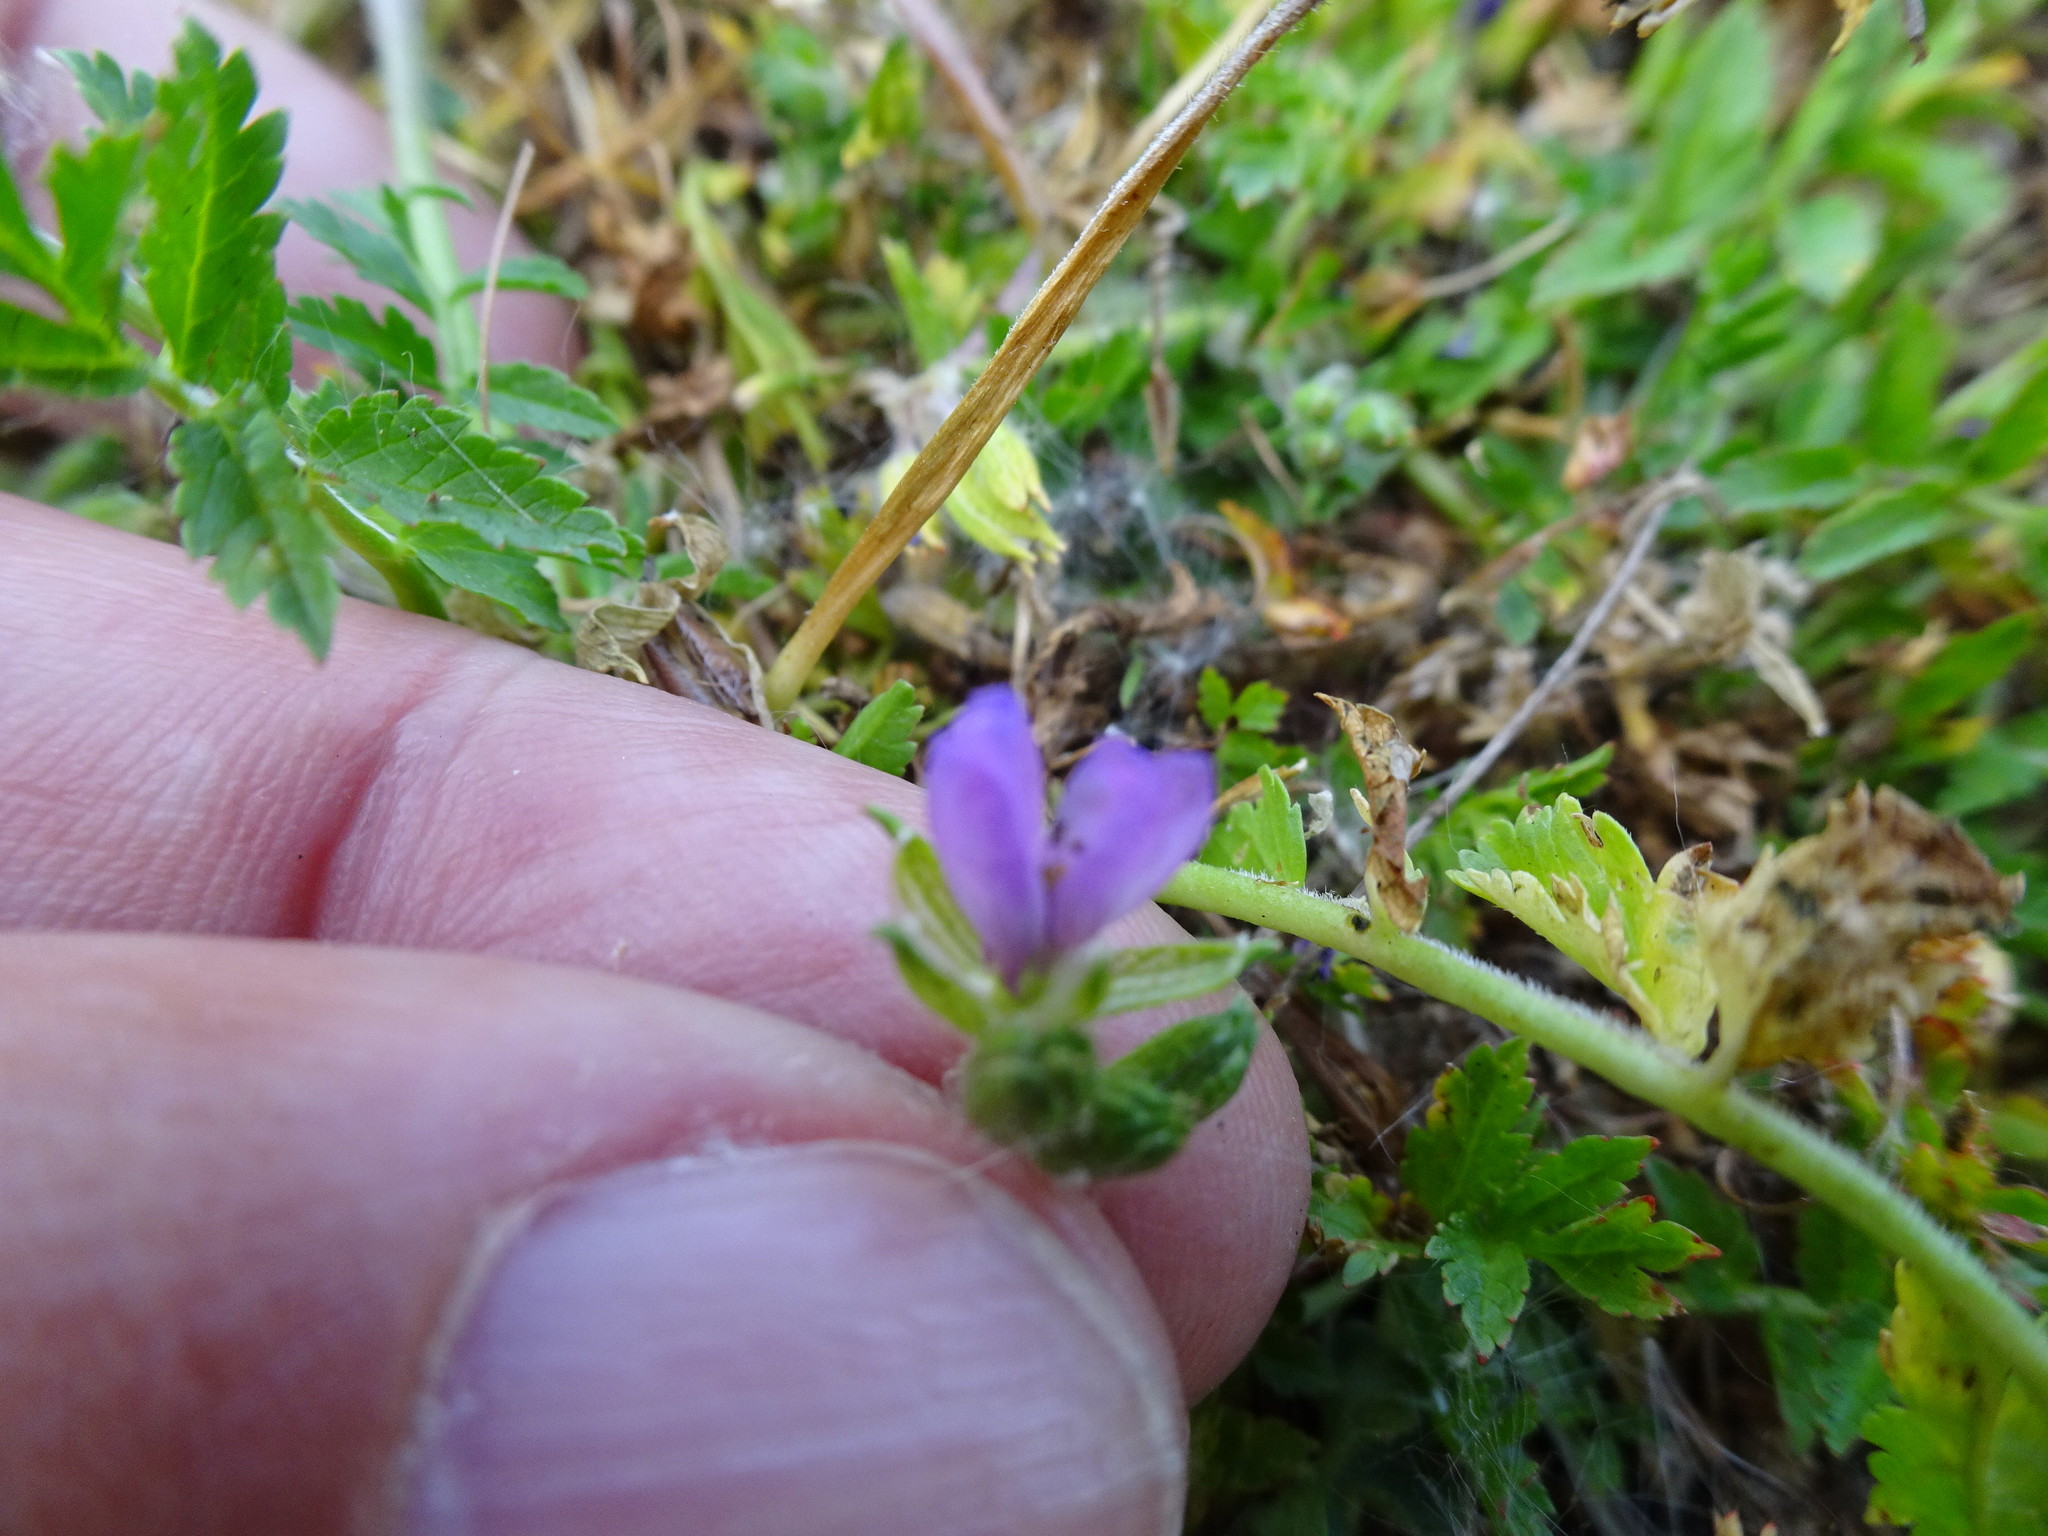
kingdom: Plantae
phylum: Tracheophyta
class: Magnoliopsida
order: Geraniales
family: Geraniaceae
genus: Erodium
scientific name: Erodium moschatum
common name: Musk stork's-bill
